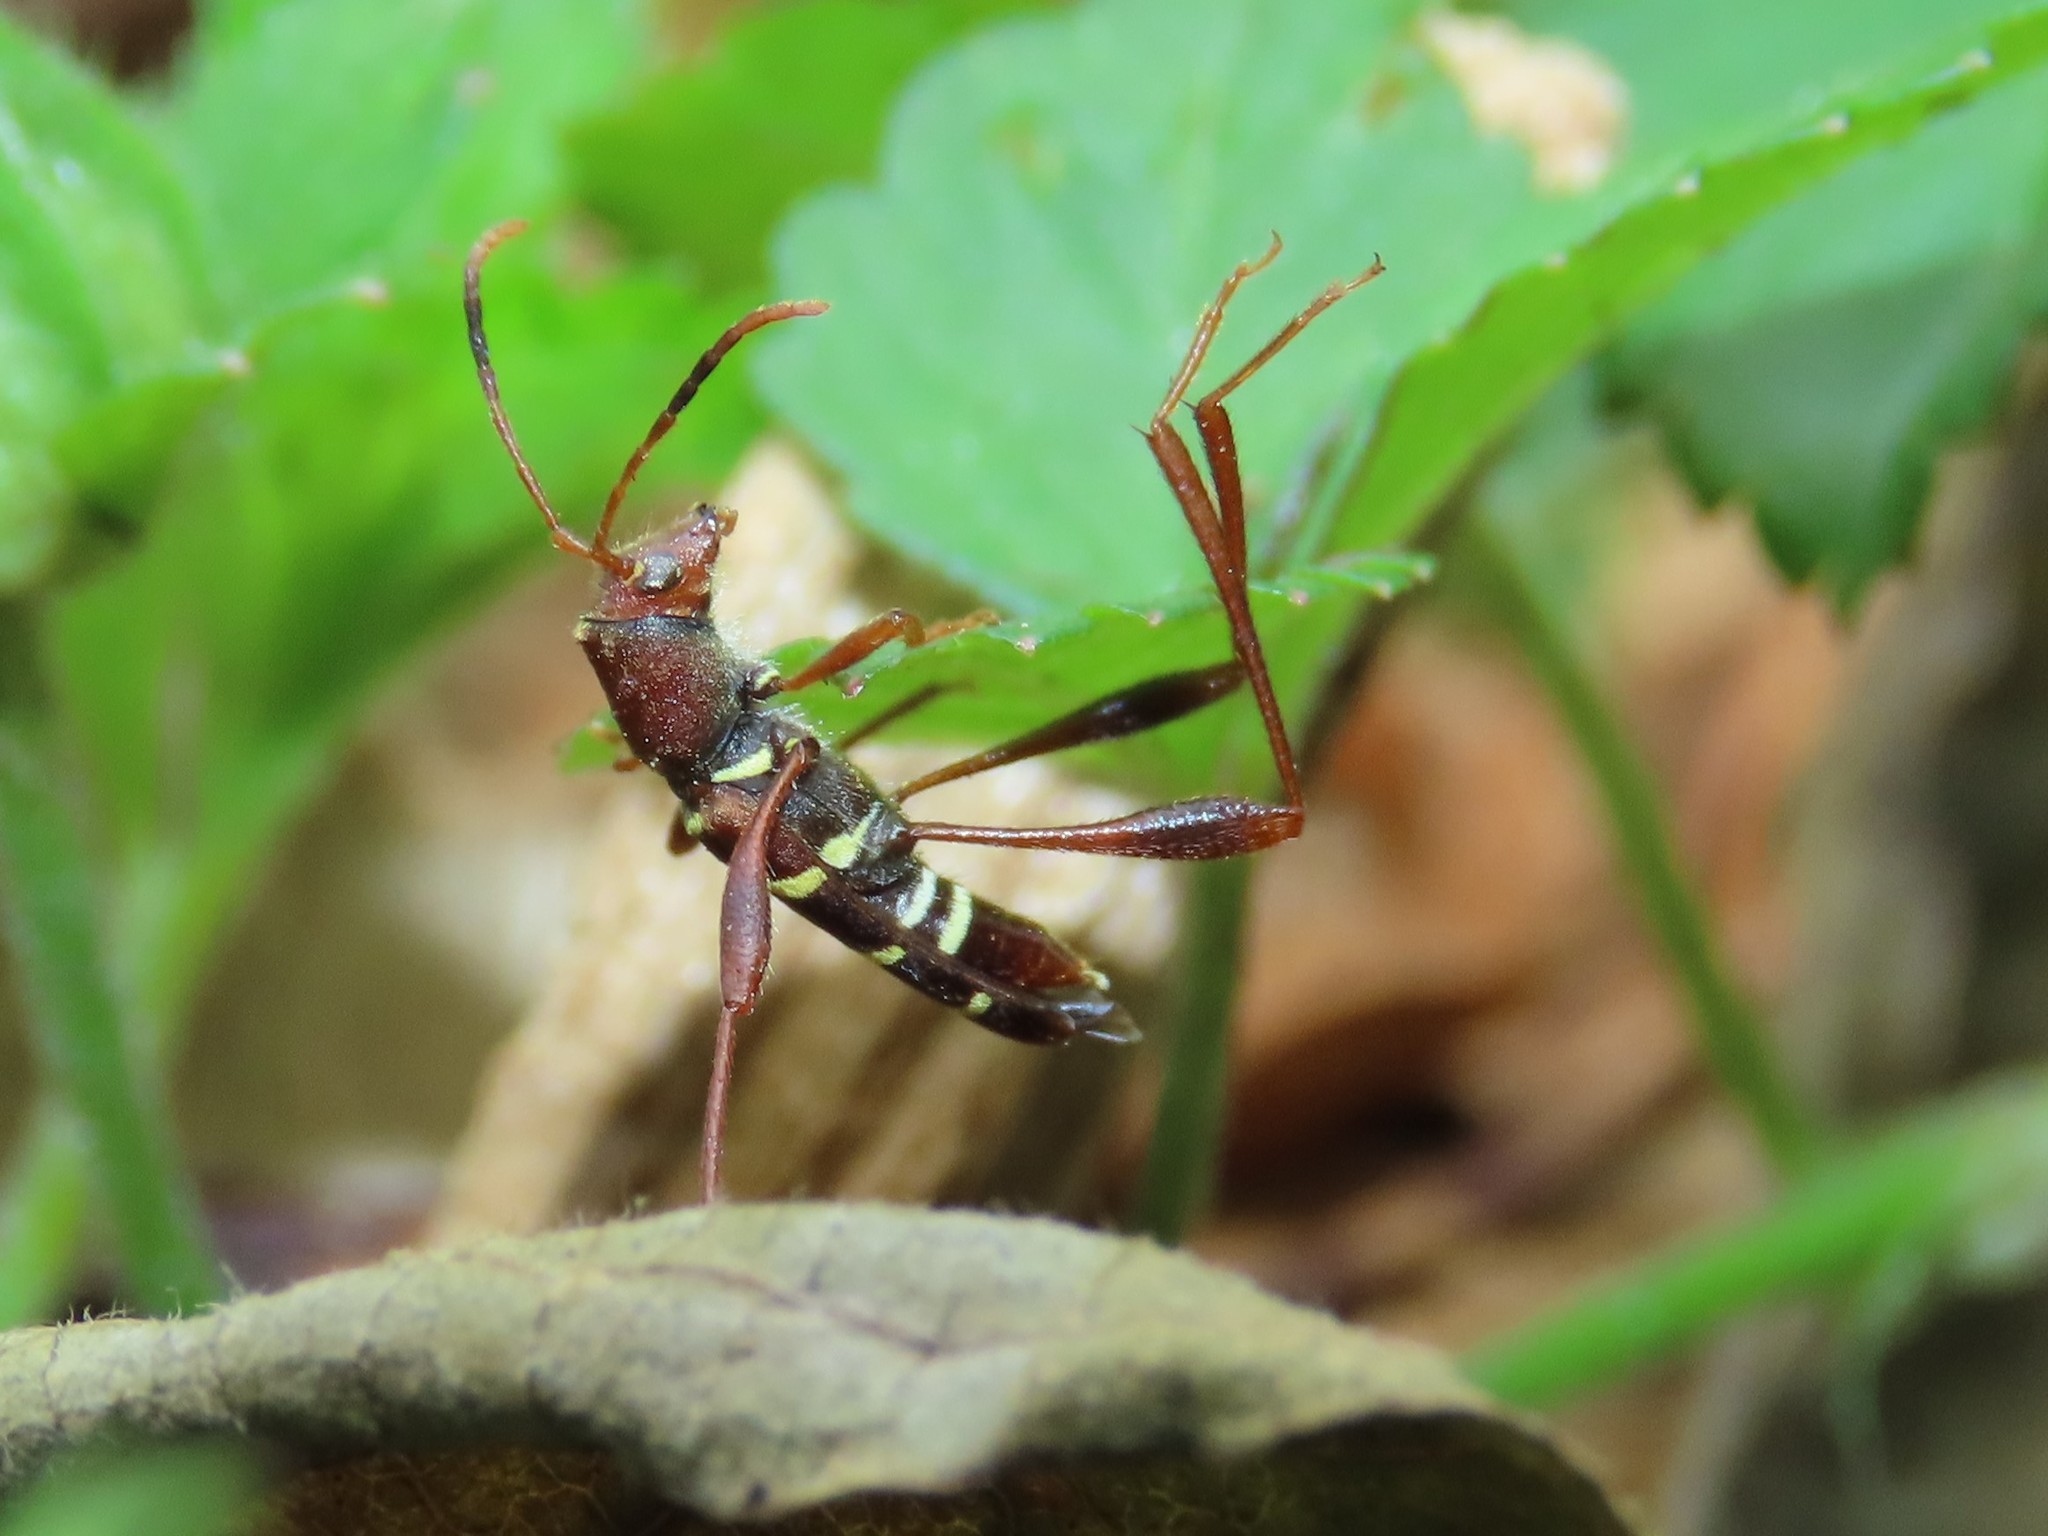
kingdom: Animalia
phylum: Arthropoda
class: Insecta
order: Coleoptera
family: Cerambycidae
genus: Neoclytus
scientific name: Neoclytus acuminatus
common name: Read-headed ash borer
